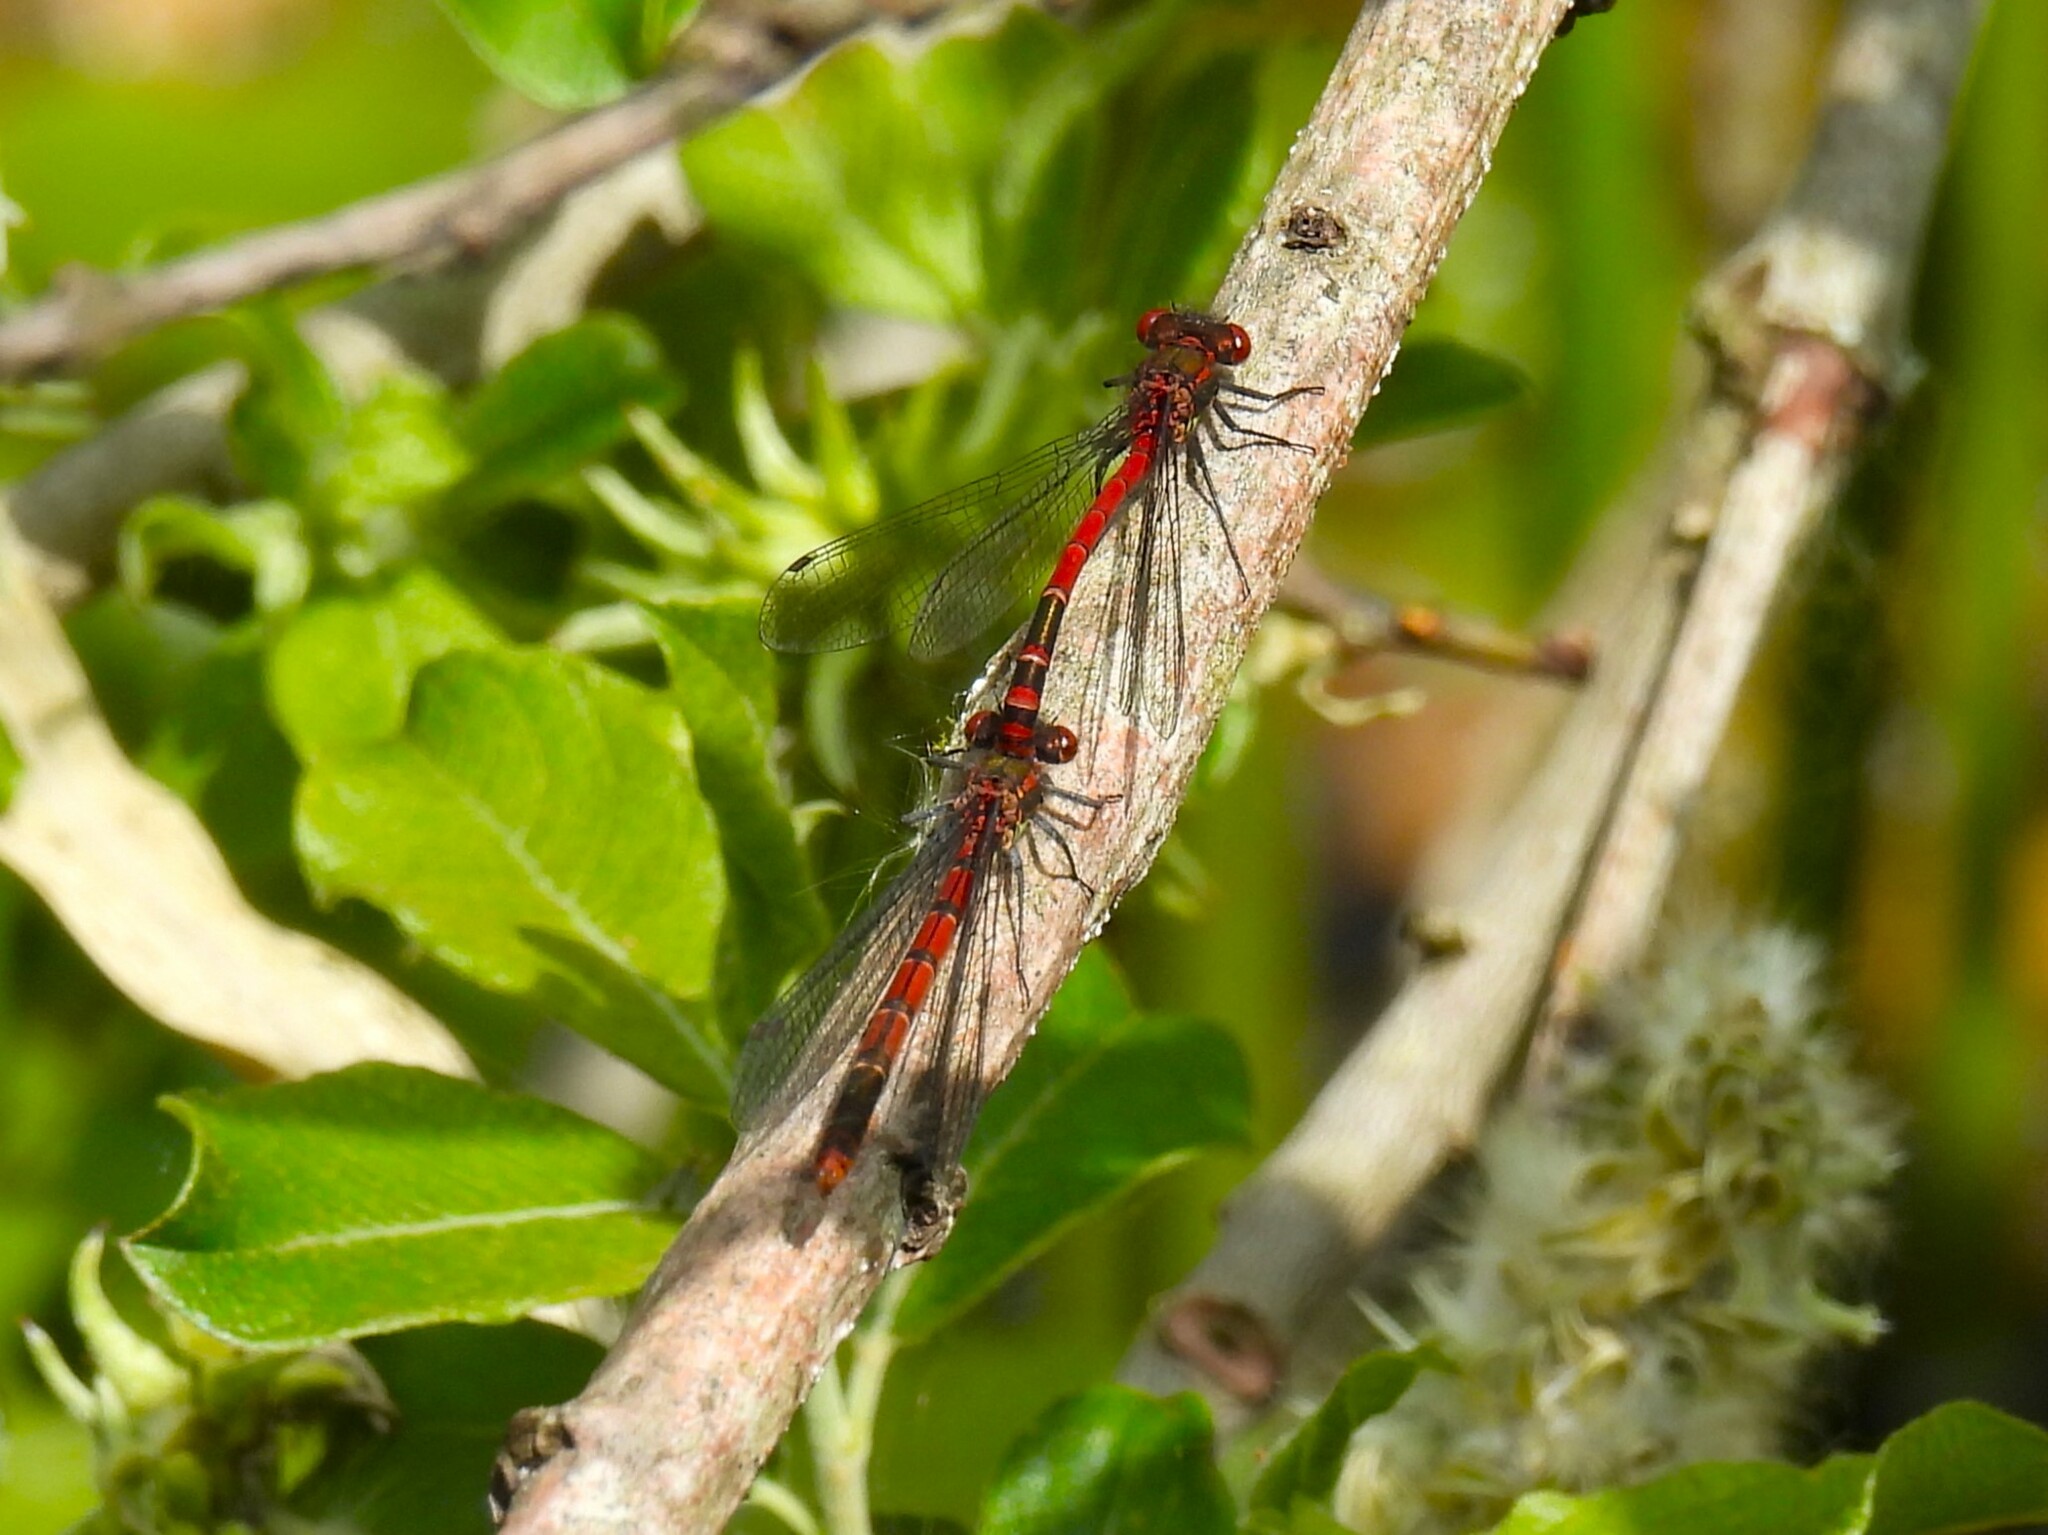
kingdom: Animalia
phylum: Arthropoda
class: Insecta
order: Odonata
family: Coenagrionidae
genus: Pyrrhosoma
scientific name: Pyrrhosoma nymphula
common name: Large red damsel
